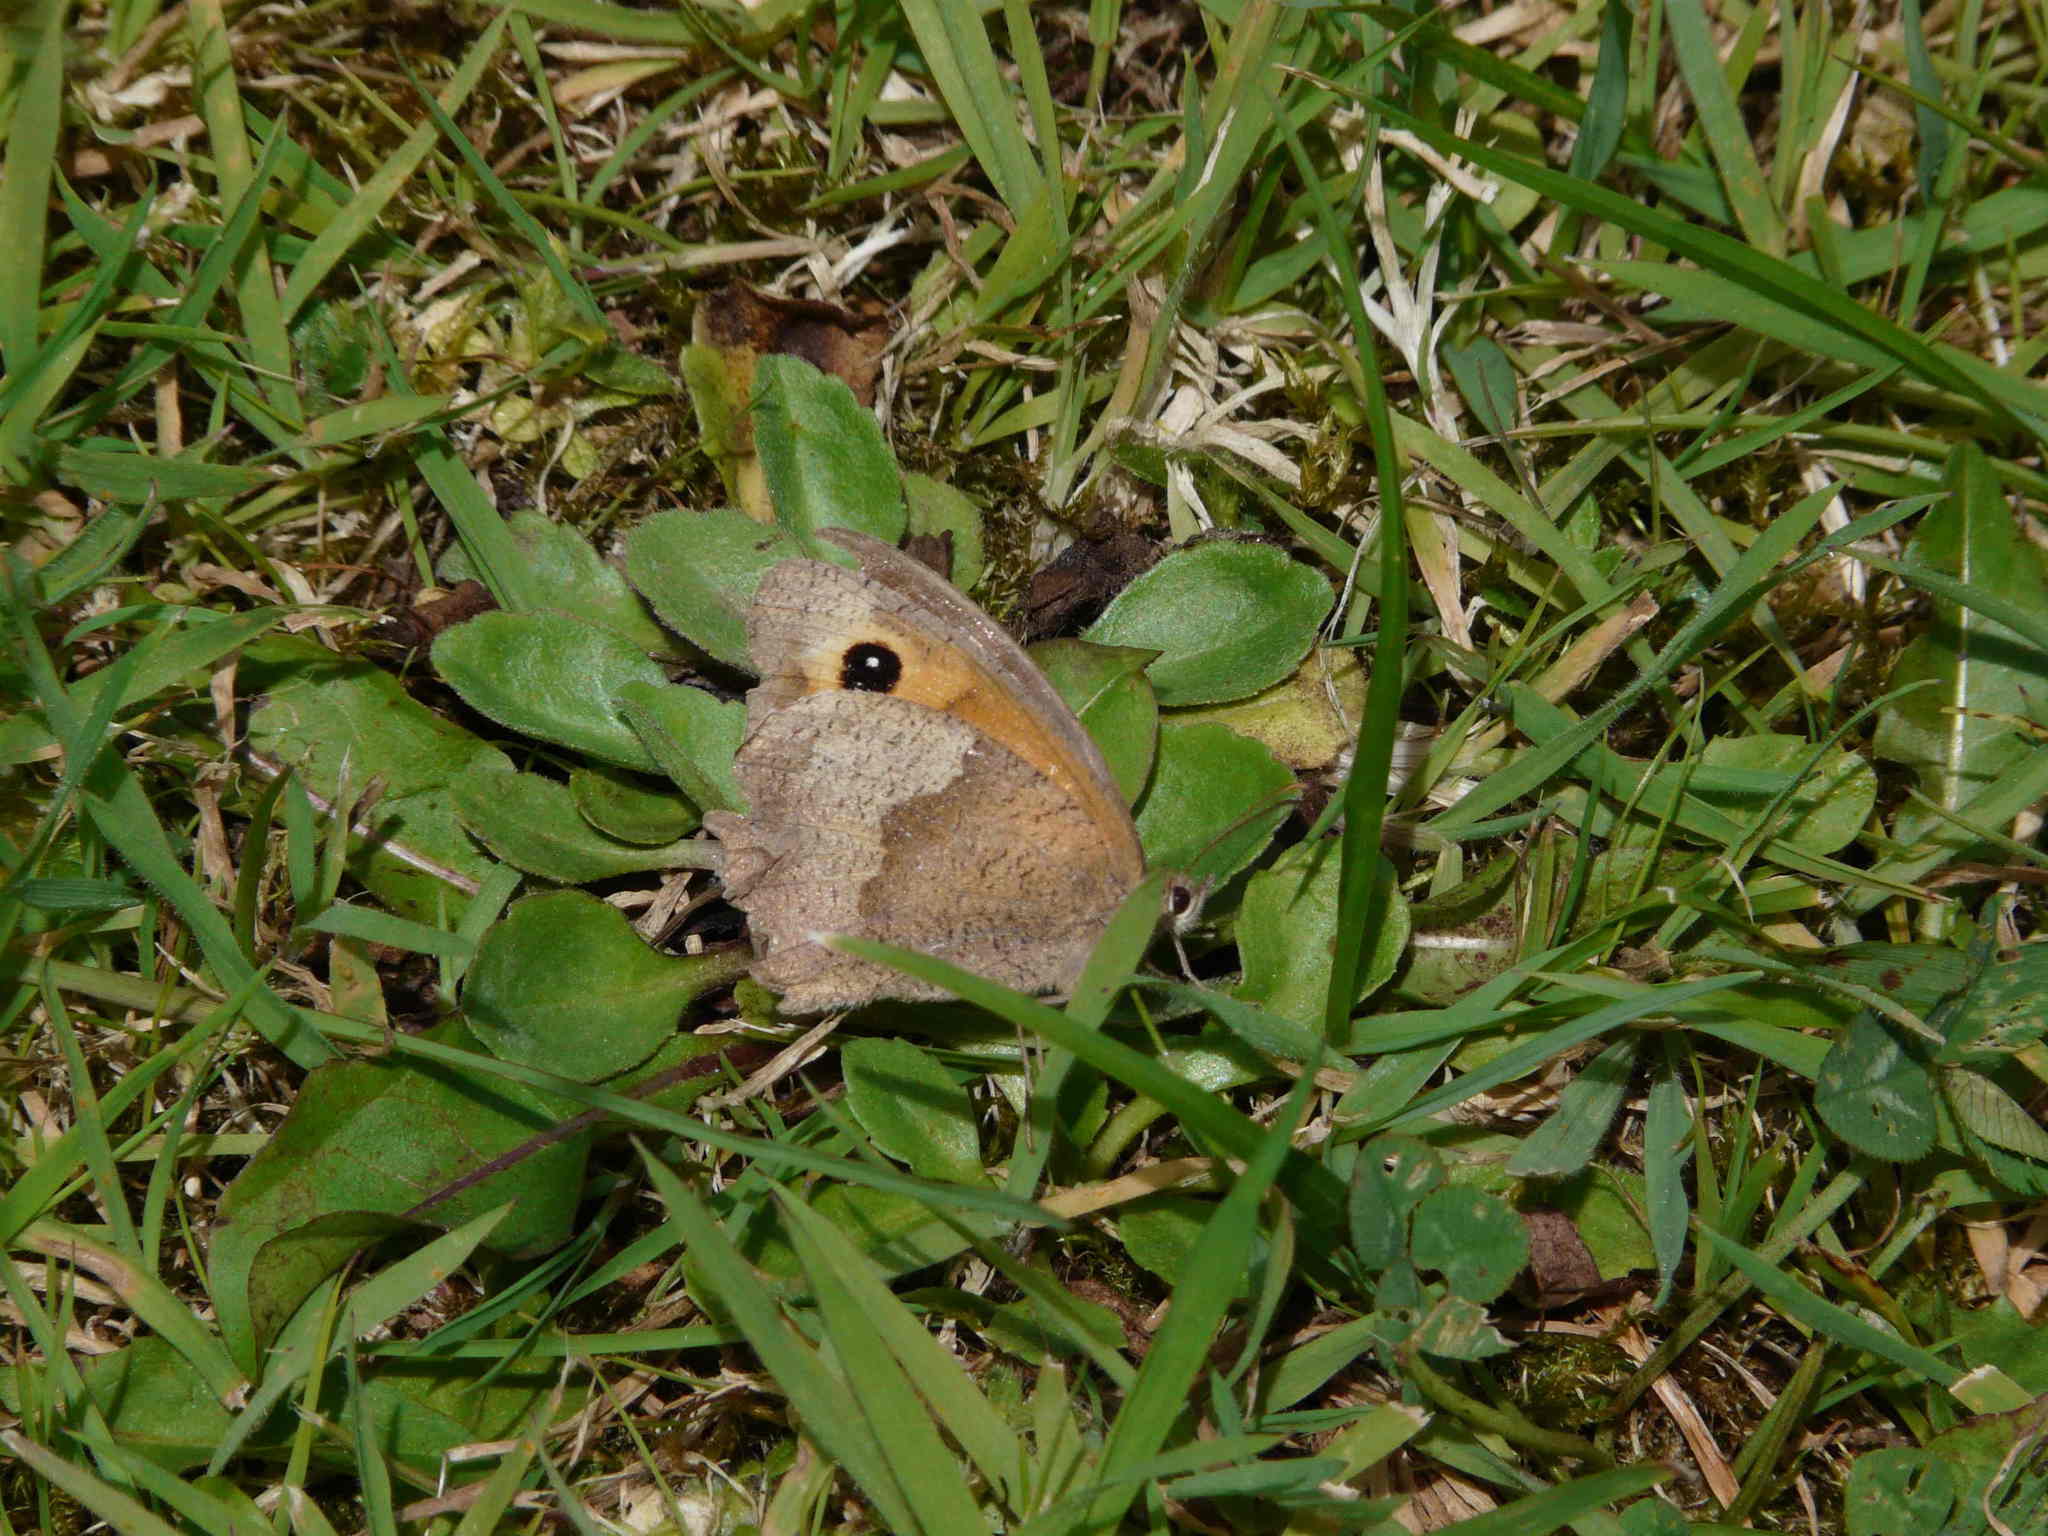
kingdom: Animalia
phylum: Arthropoda
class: Insecta
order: Lepidoptera
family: Nymphalidae
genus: Maniola
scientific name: Maniola jurtina
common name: Meadow brown
